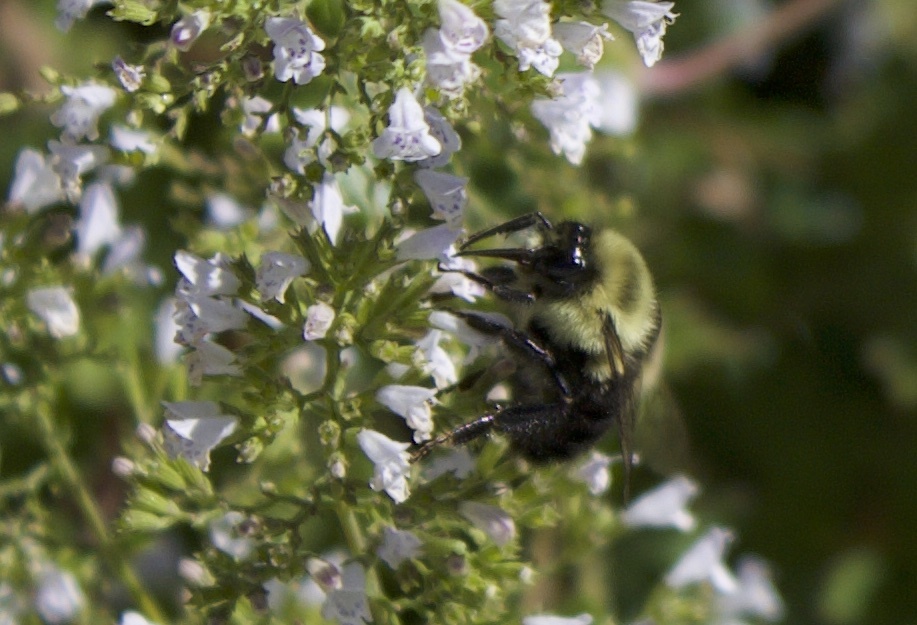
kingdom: Animalia
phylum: Arthropoda
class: Insecta
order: Hymenoptera
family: Apidae
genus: Bombus
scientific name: Bombus impatiens
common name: Common eastern bumble bee
